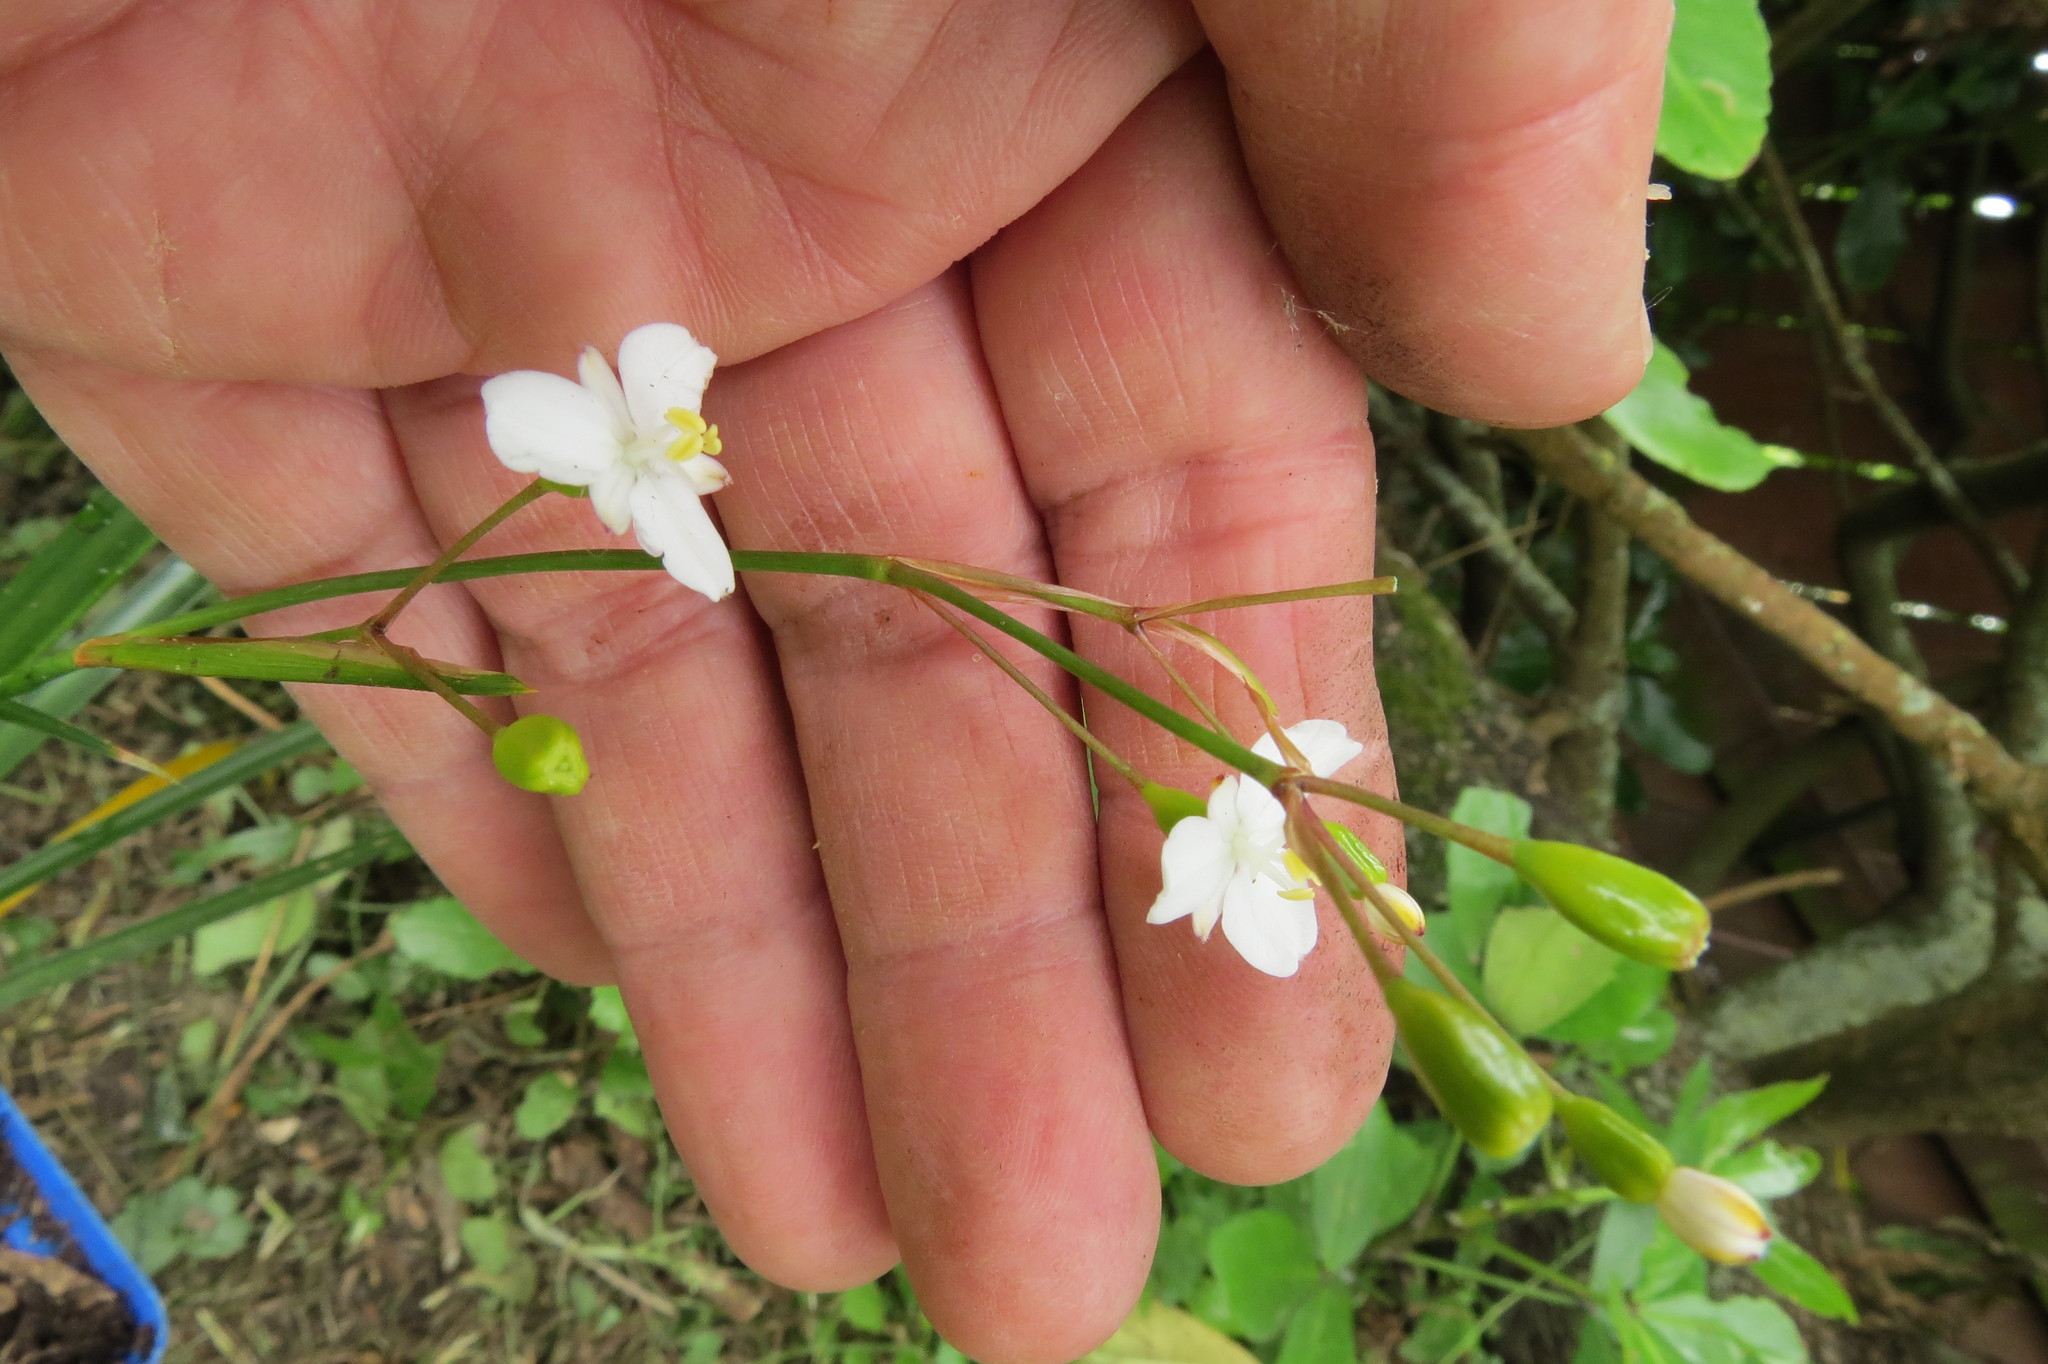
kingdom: Plantae
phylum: Tracheophyta
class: Liliopsida
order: Asparagales
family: Iridaceae
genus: Libertia
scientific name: Libertia ixioides
